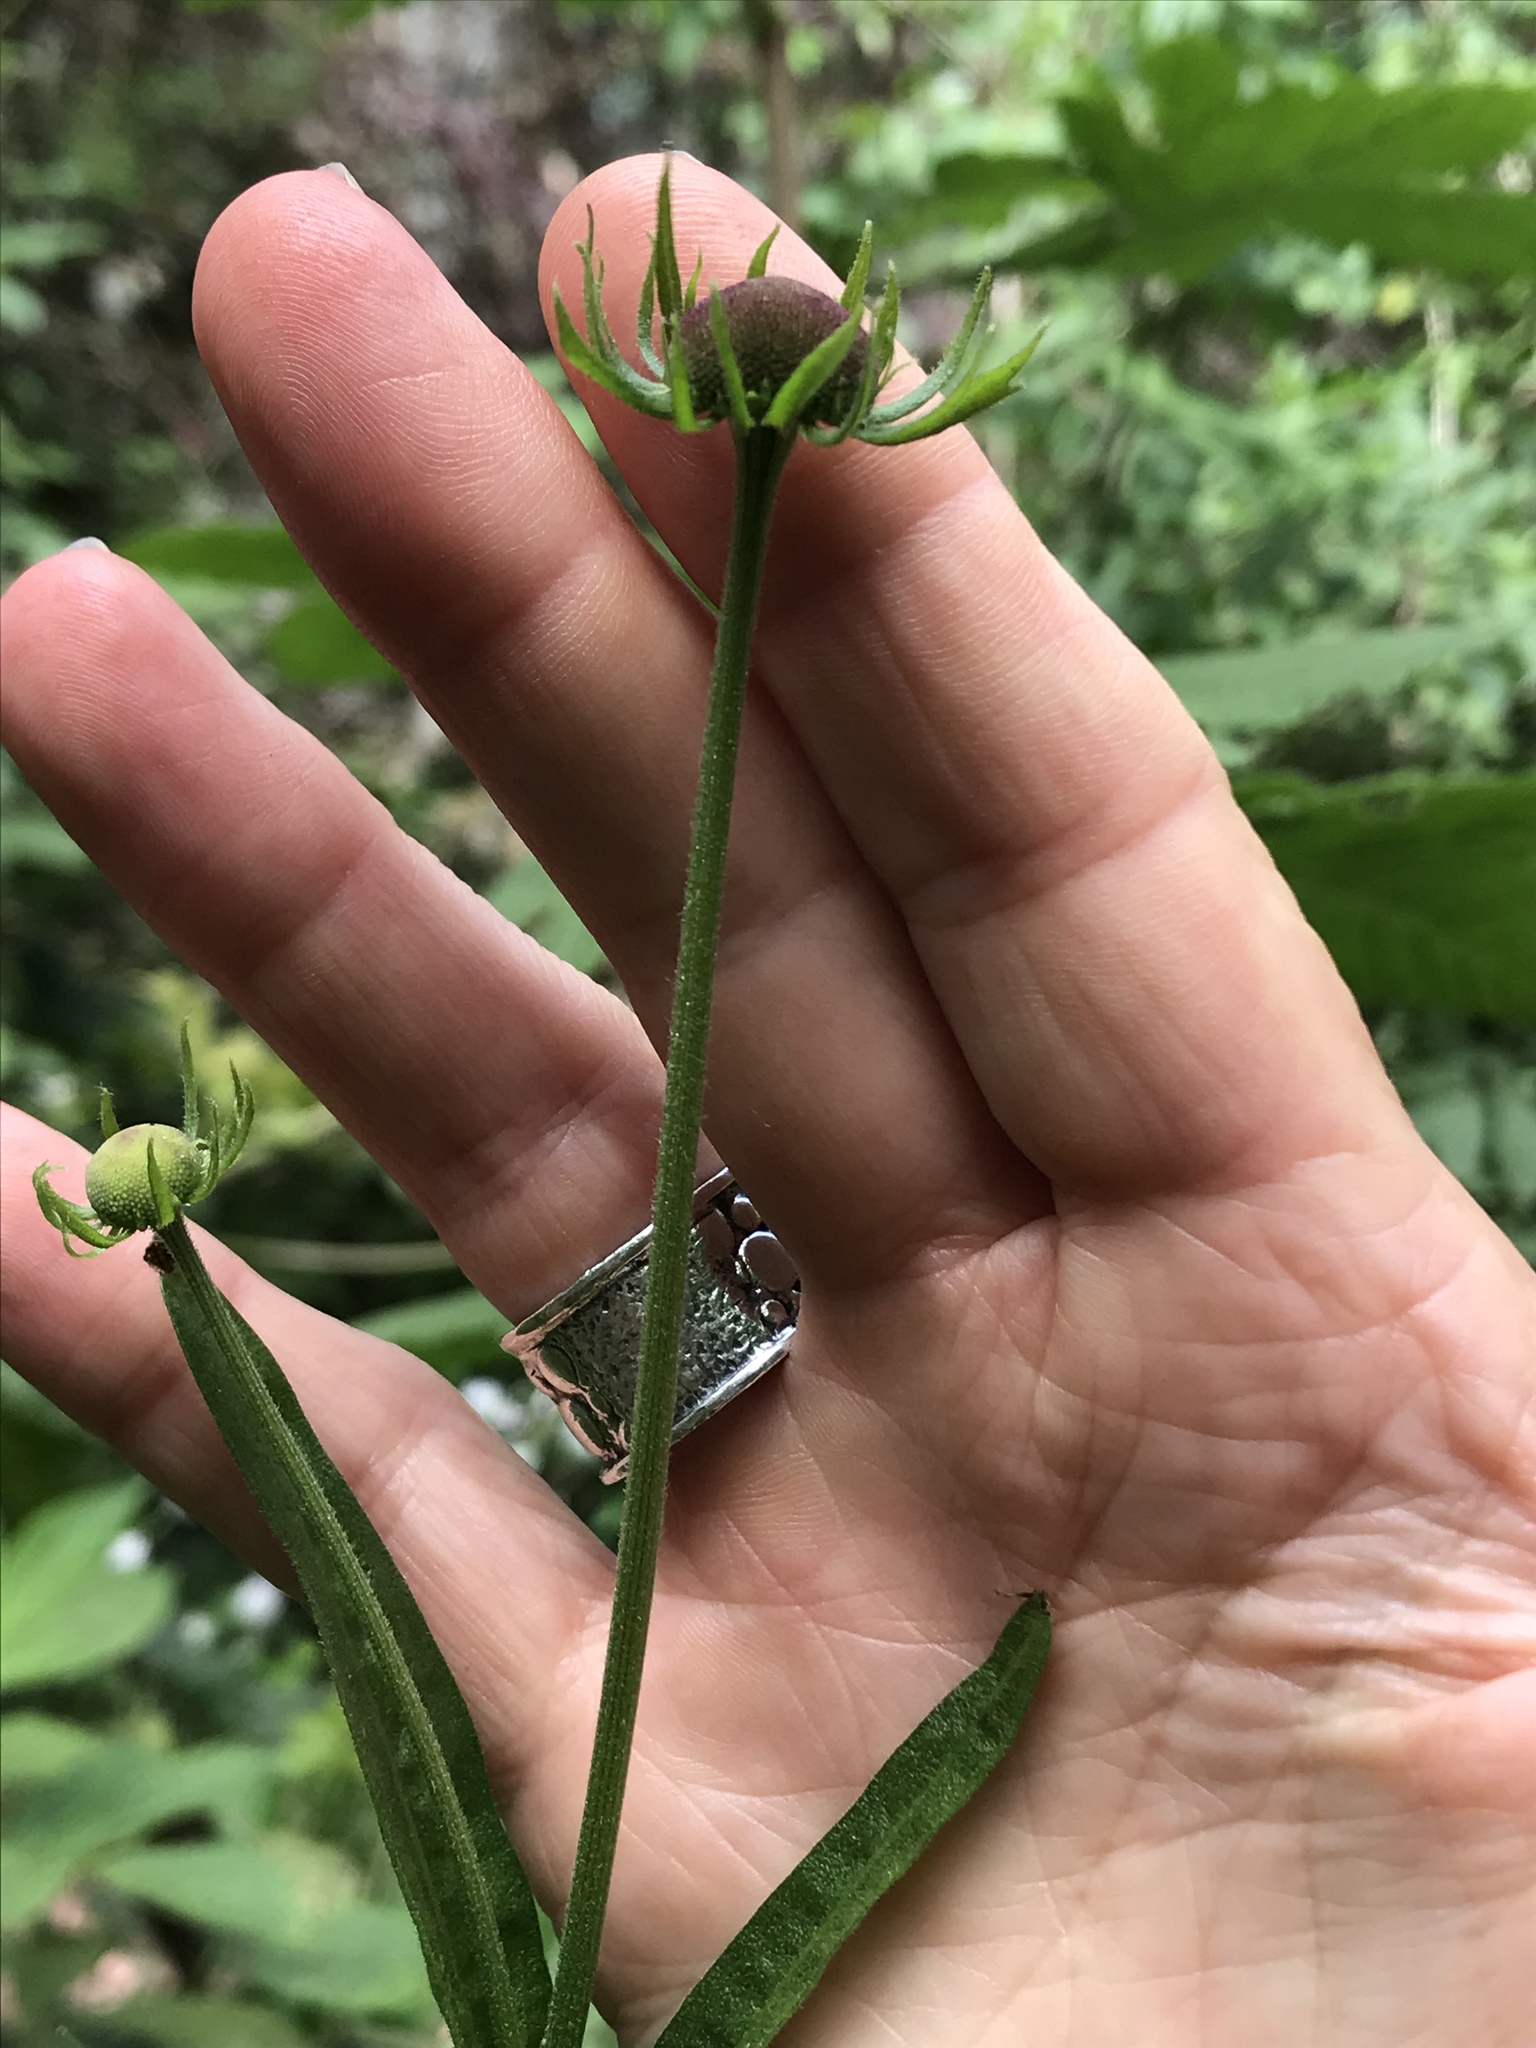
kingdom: Plantae
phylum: Tracheophyta
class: Magnoliopsida
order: Asterales
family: Asteraceae
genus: Helenium
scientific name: Helenium puberulum
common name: Sneezewort
